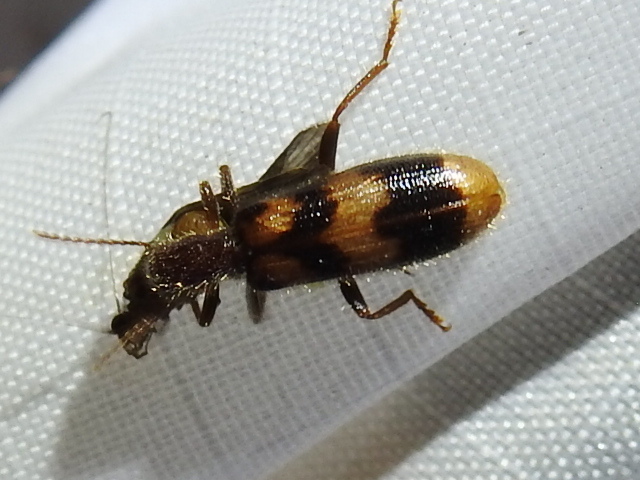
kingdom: Animalia
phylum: Arthropoda
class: Insecta
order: Coleoptera
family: Cleridae
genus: Cymatodera
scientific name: Cymatodera sirpata
